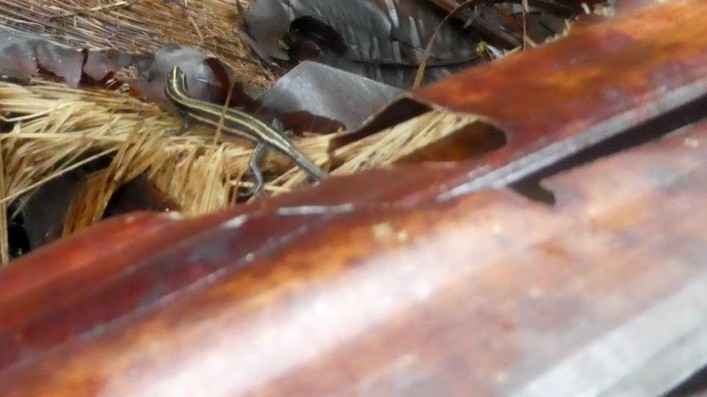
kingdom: Animalia
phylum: Chordata
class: Squamata
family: Scincidae
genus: Emoia
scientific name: Emoia caeruleocauda
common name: Pacific bluetail skink
